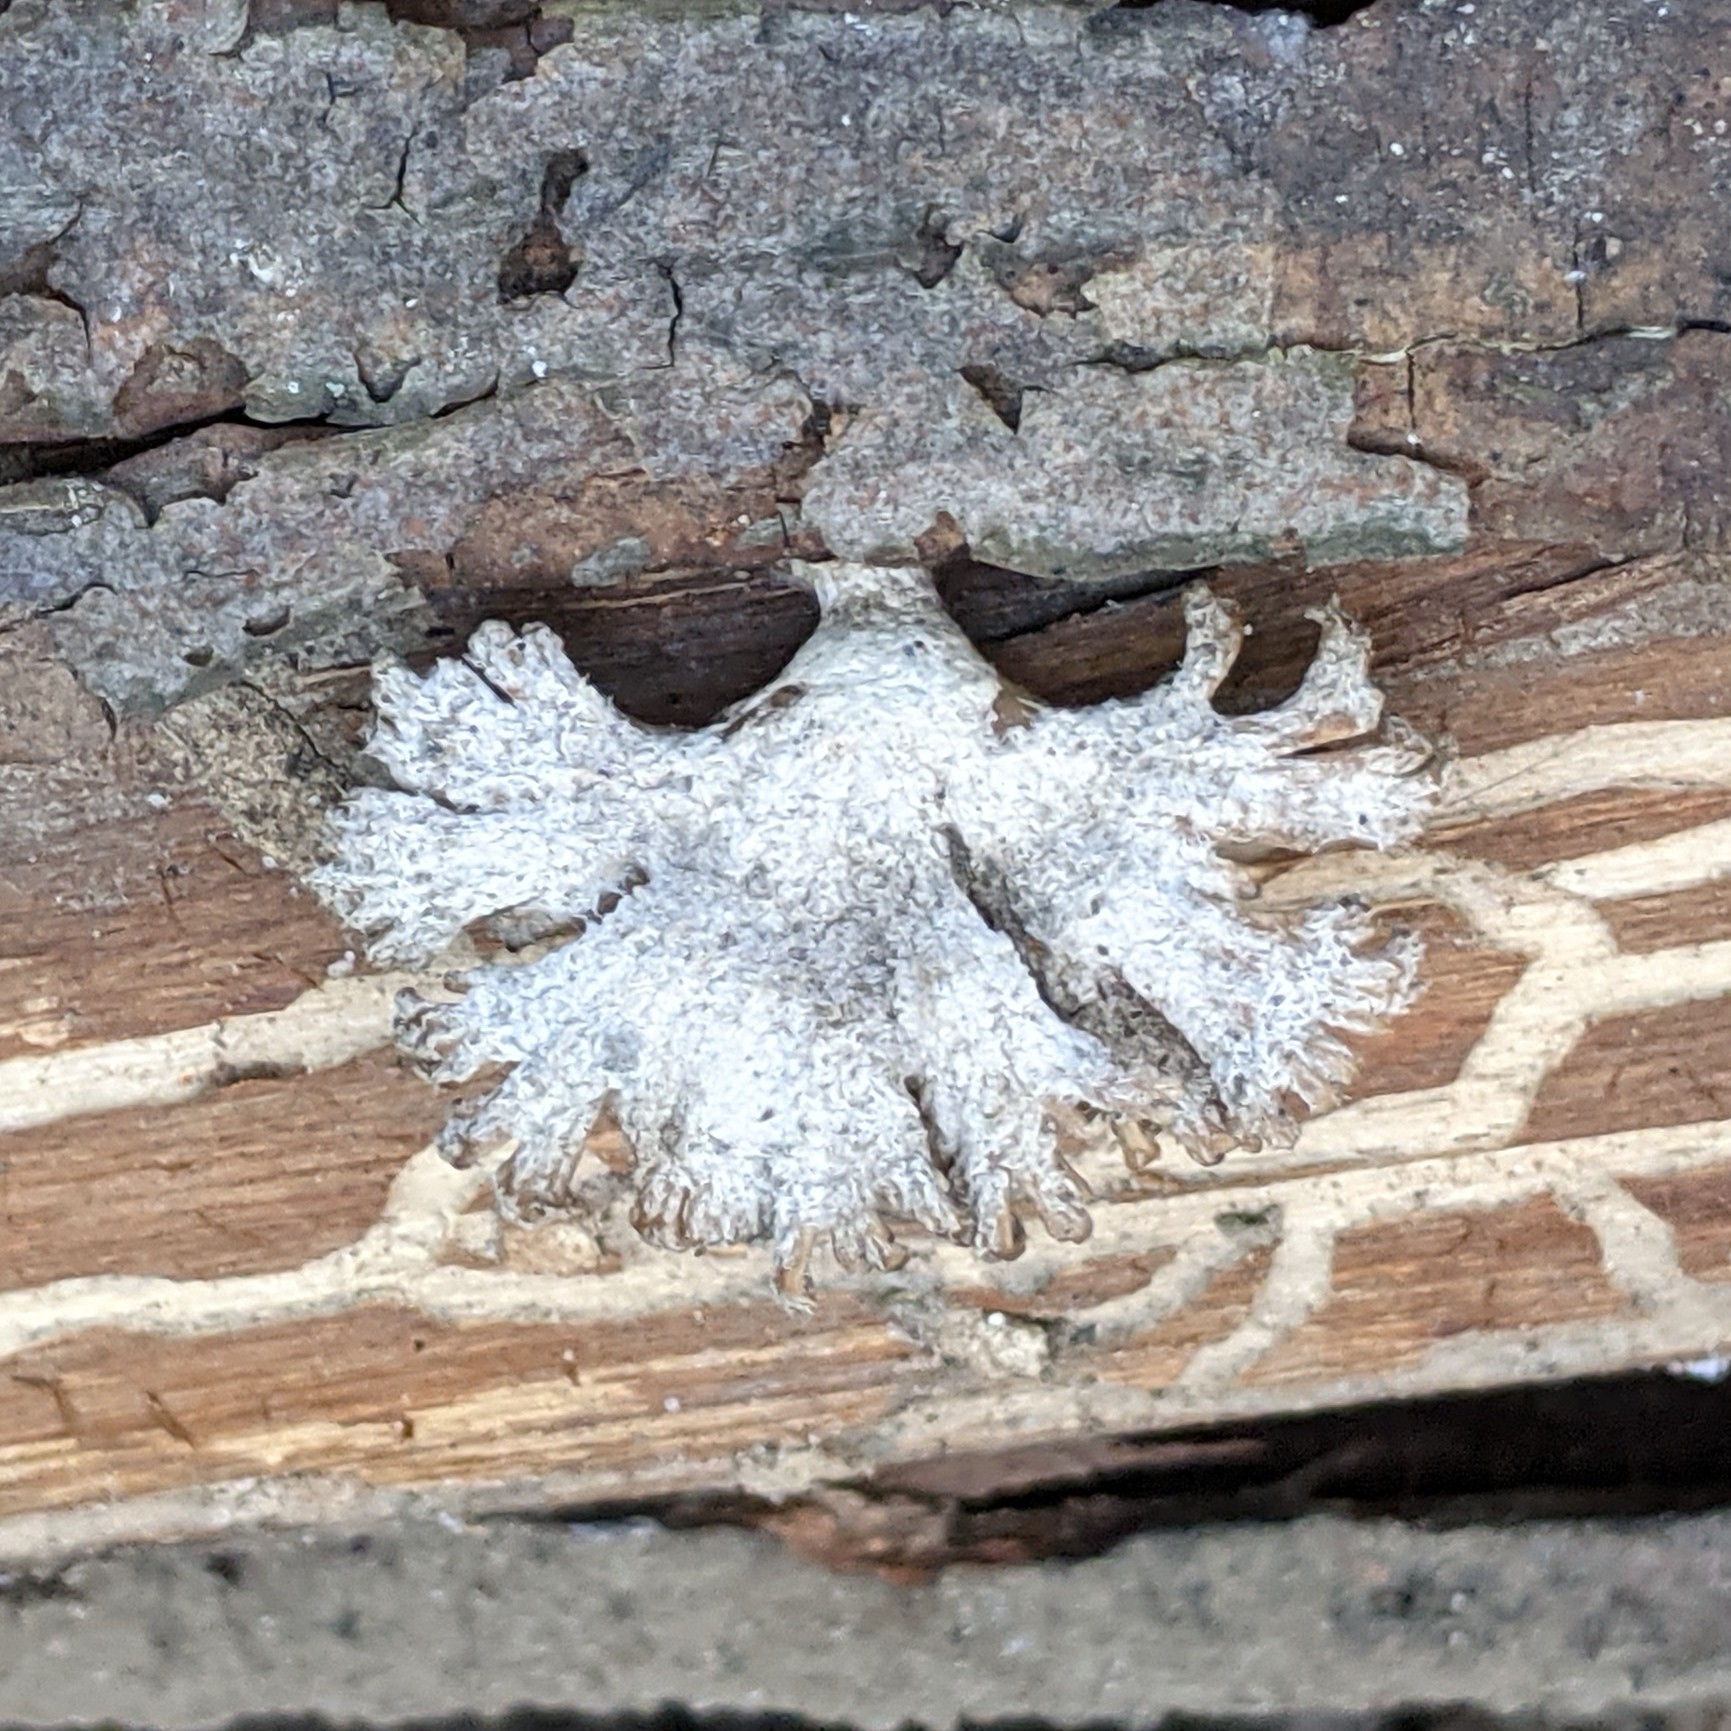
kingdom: Fungi
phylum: Basidiomycota
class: Agaricomycetes
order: Agaricales
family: Schizophyllaceae
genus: Schizophyllum
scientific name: Schizophyllum commune
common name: Common porecrust
